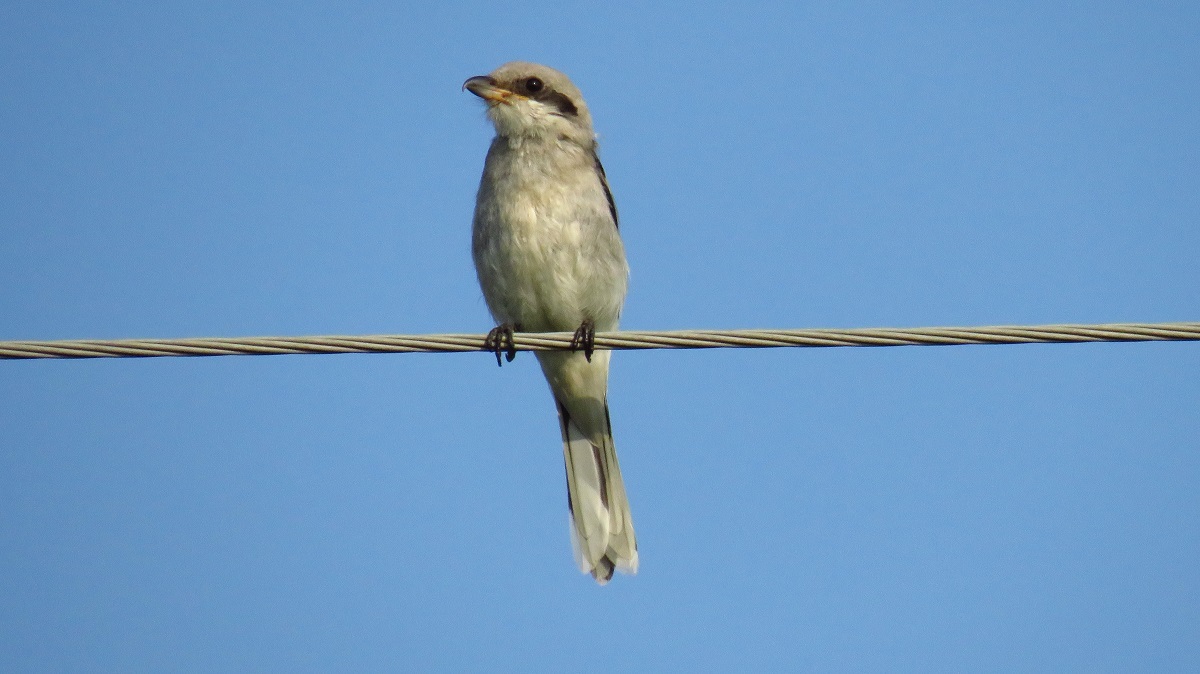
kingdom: Animalia
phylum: Chordata
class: Aves
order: Passeriformes
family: Laniidae
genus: Lanius
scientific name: Lanius excubitor
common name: Great grey shrike
